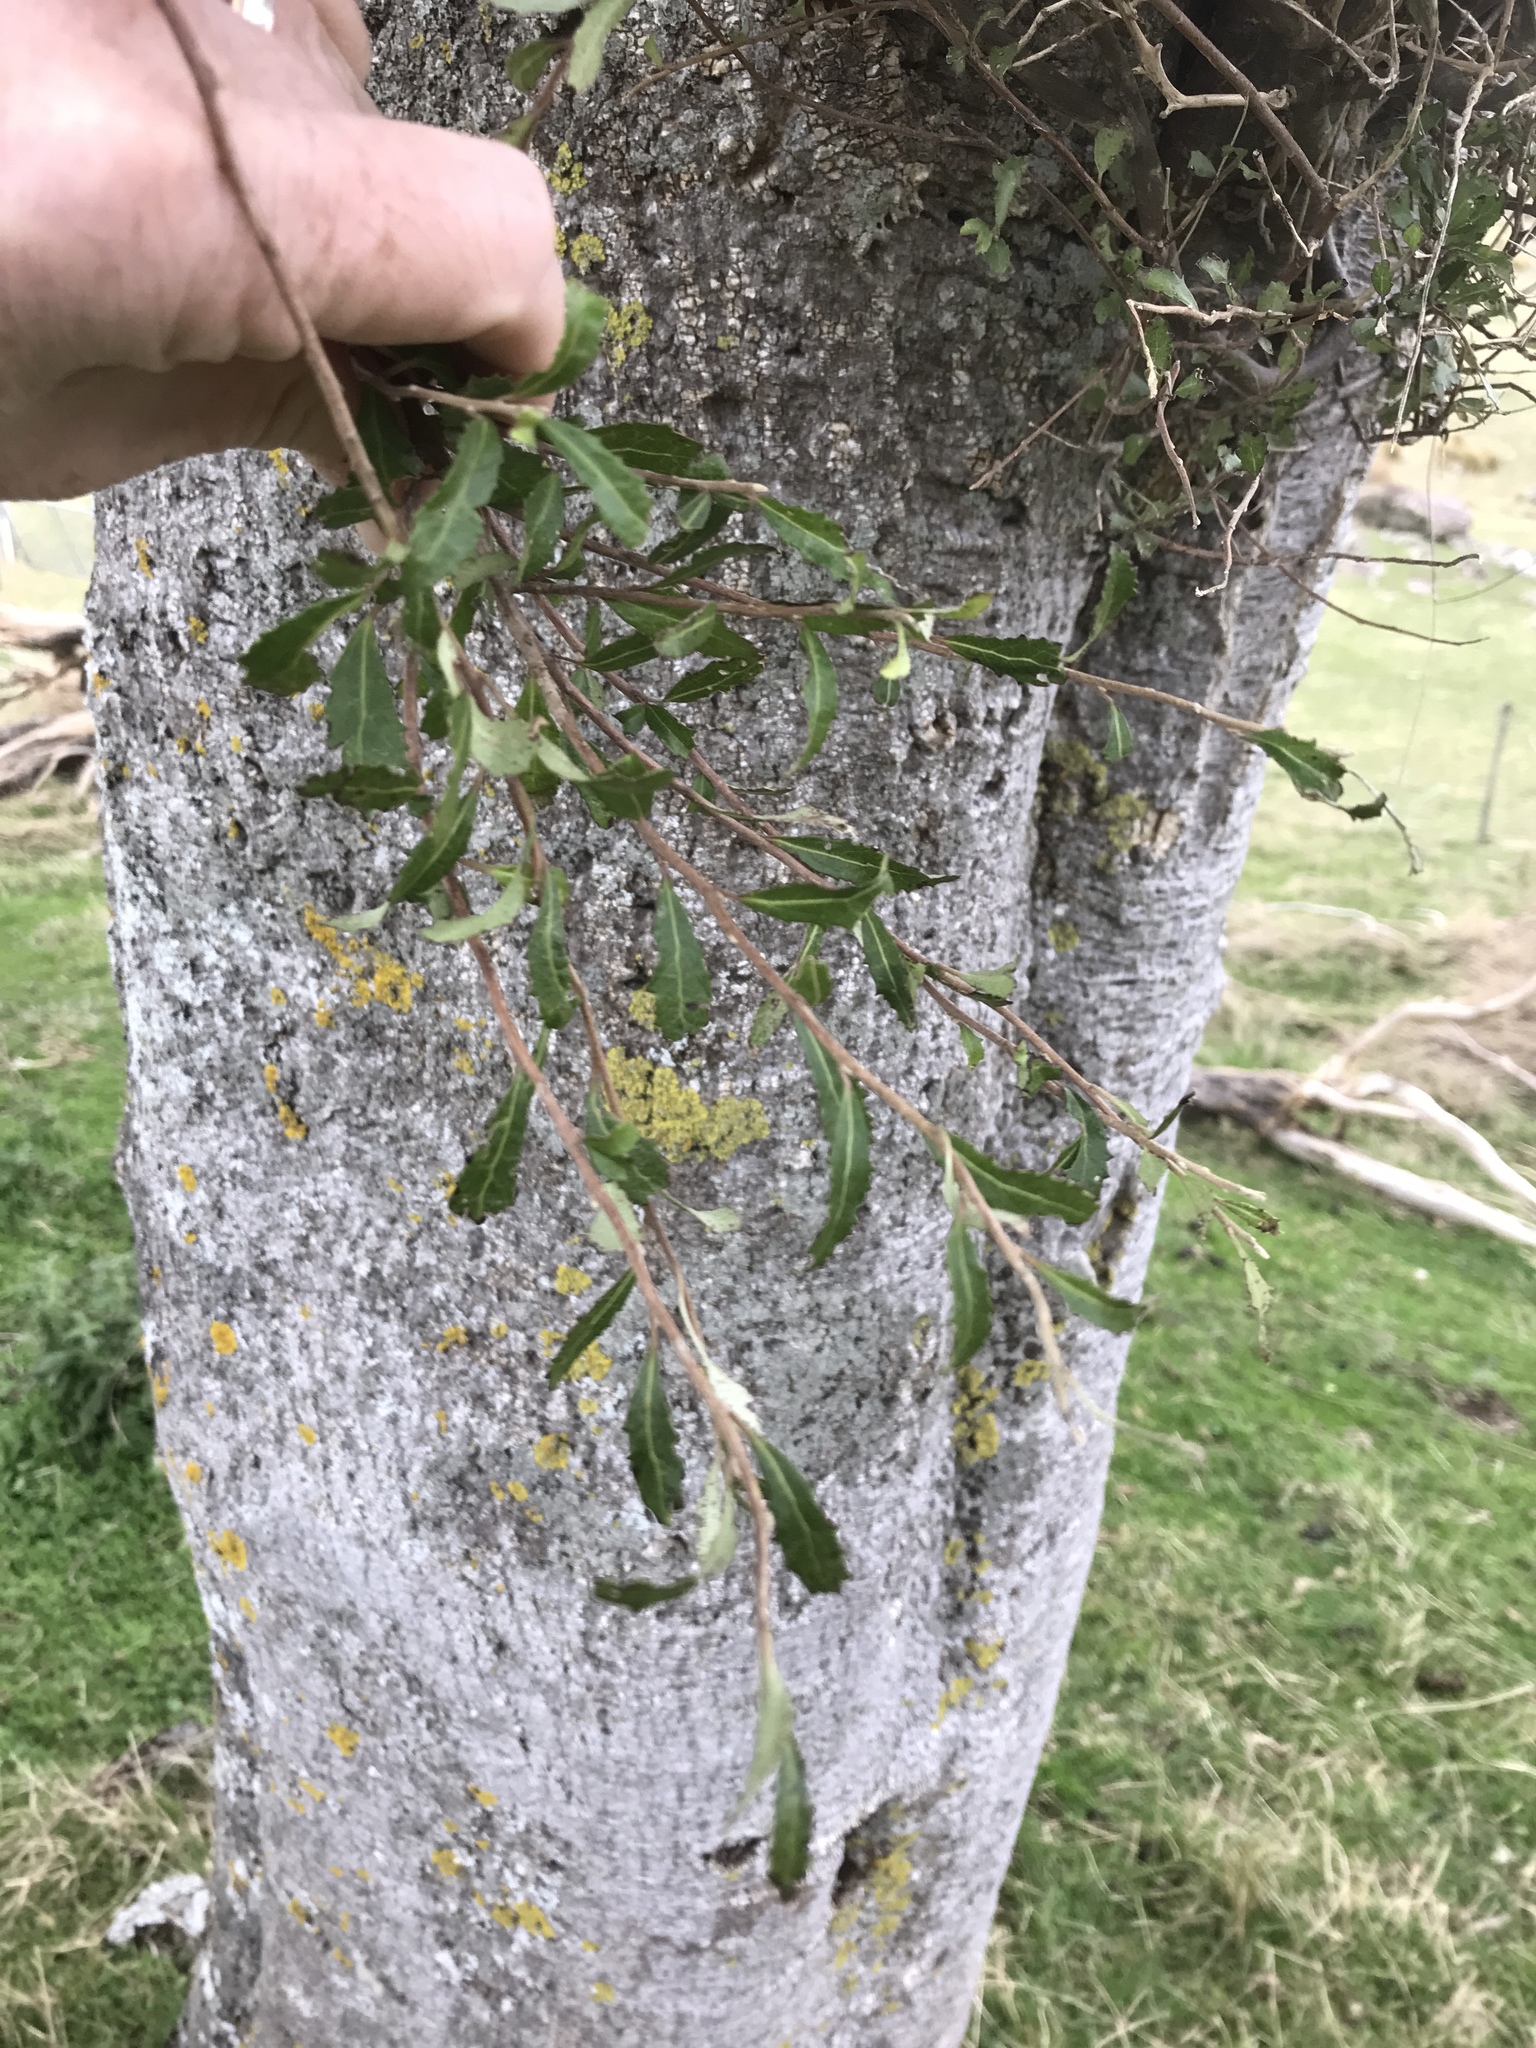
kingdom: Plantae
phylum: Tracheophyta
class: Magnoliopsida
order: Malvales
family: Malvaceae
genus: Hoheria
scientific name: Hoheria angustifolia
